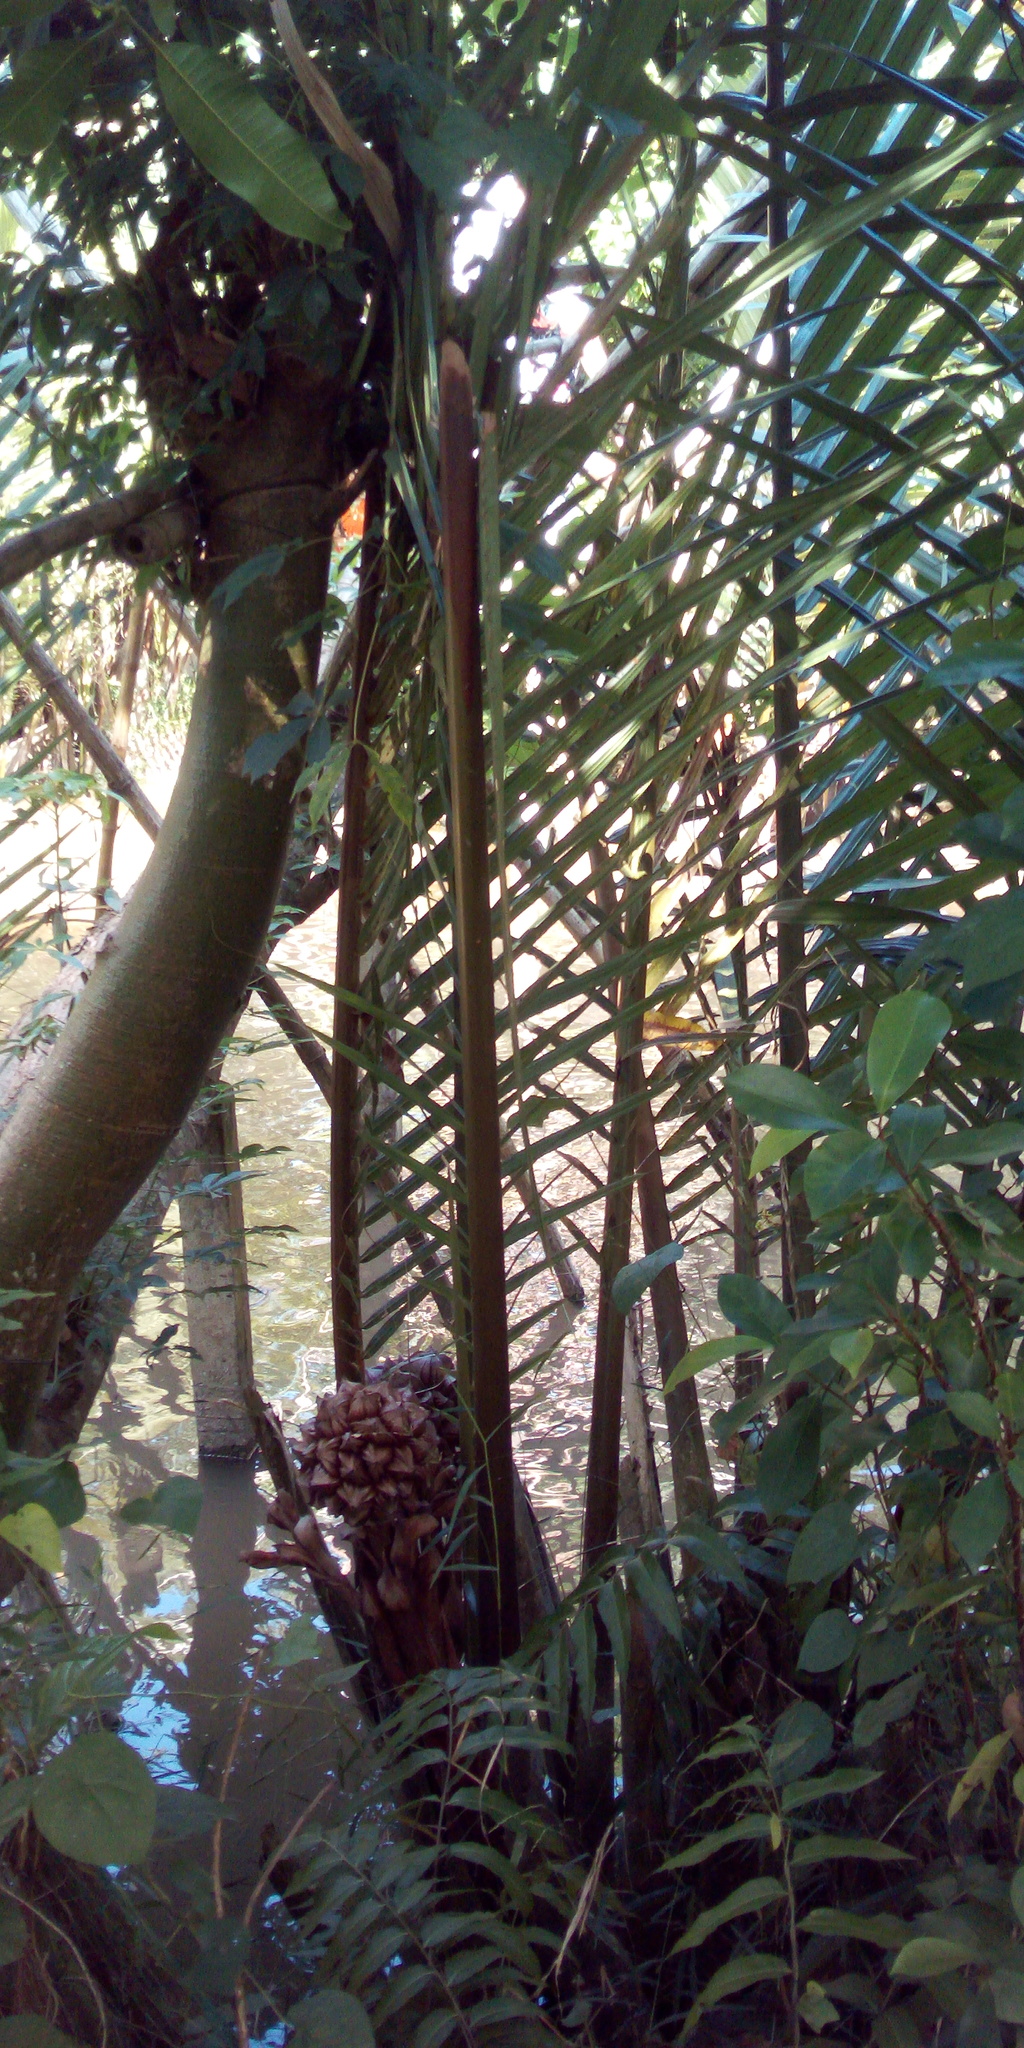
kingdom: Plantae
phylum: Tracheophyta
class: Liliopsida
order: Arecales
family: Arecaceae
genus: Nypa
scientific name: Nypa fruticans
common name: Mangrove palm
